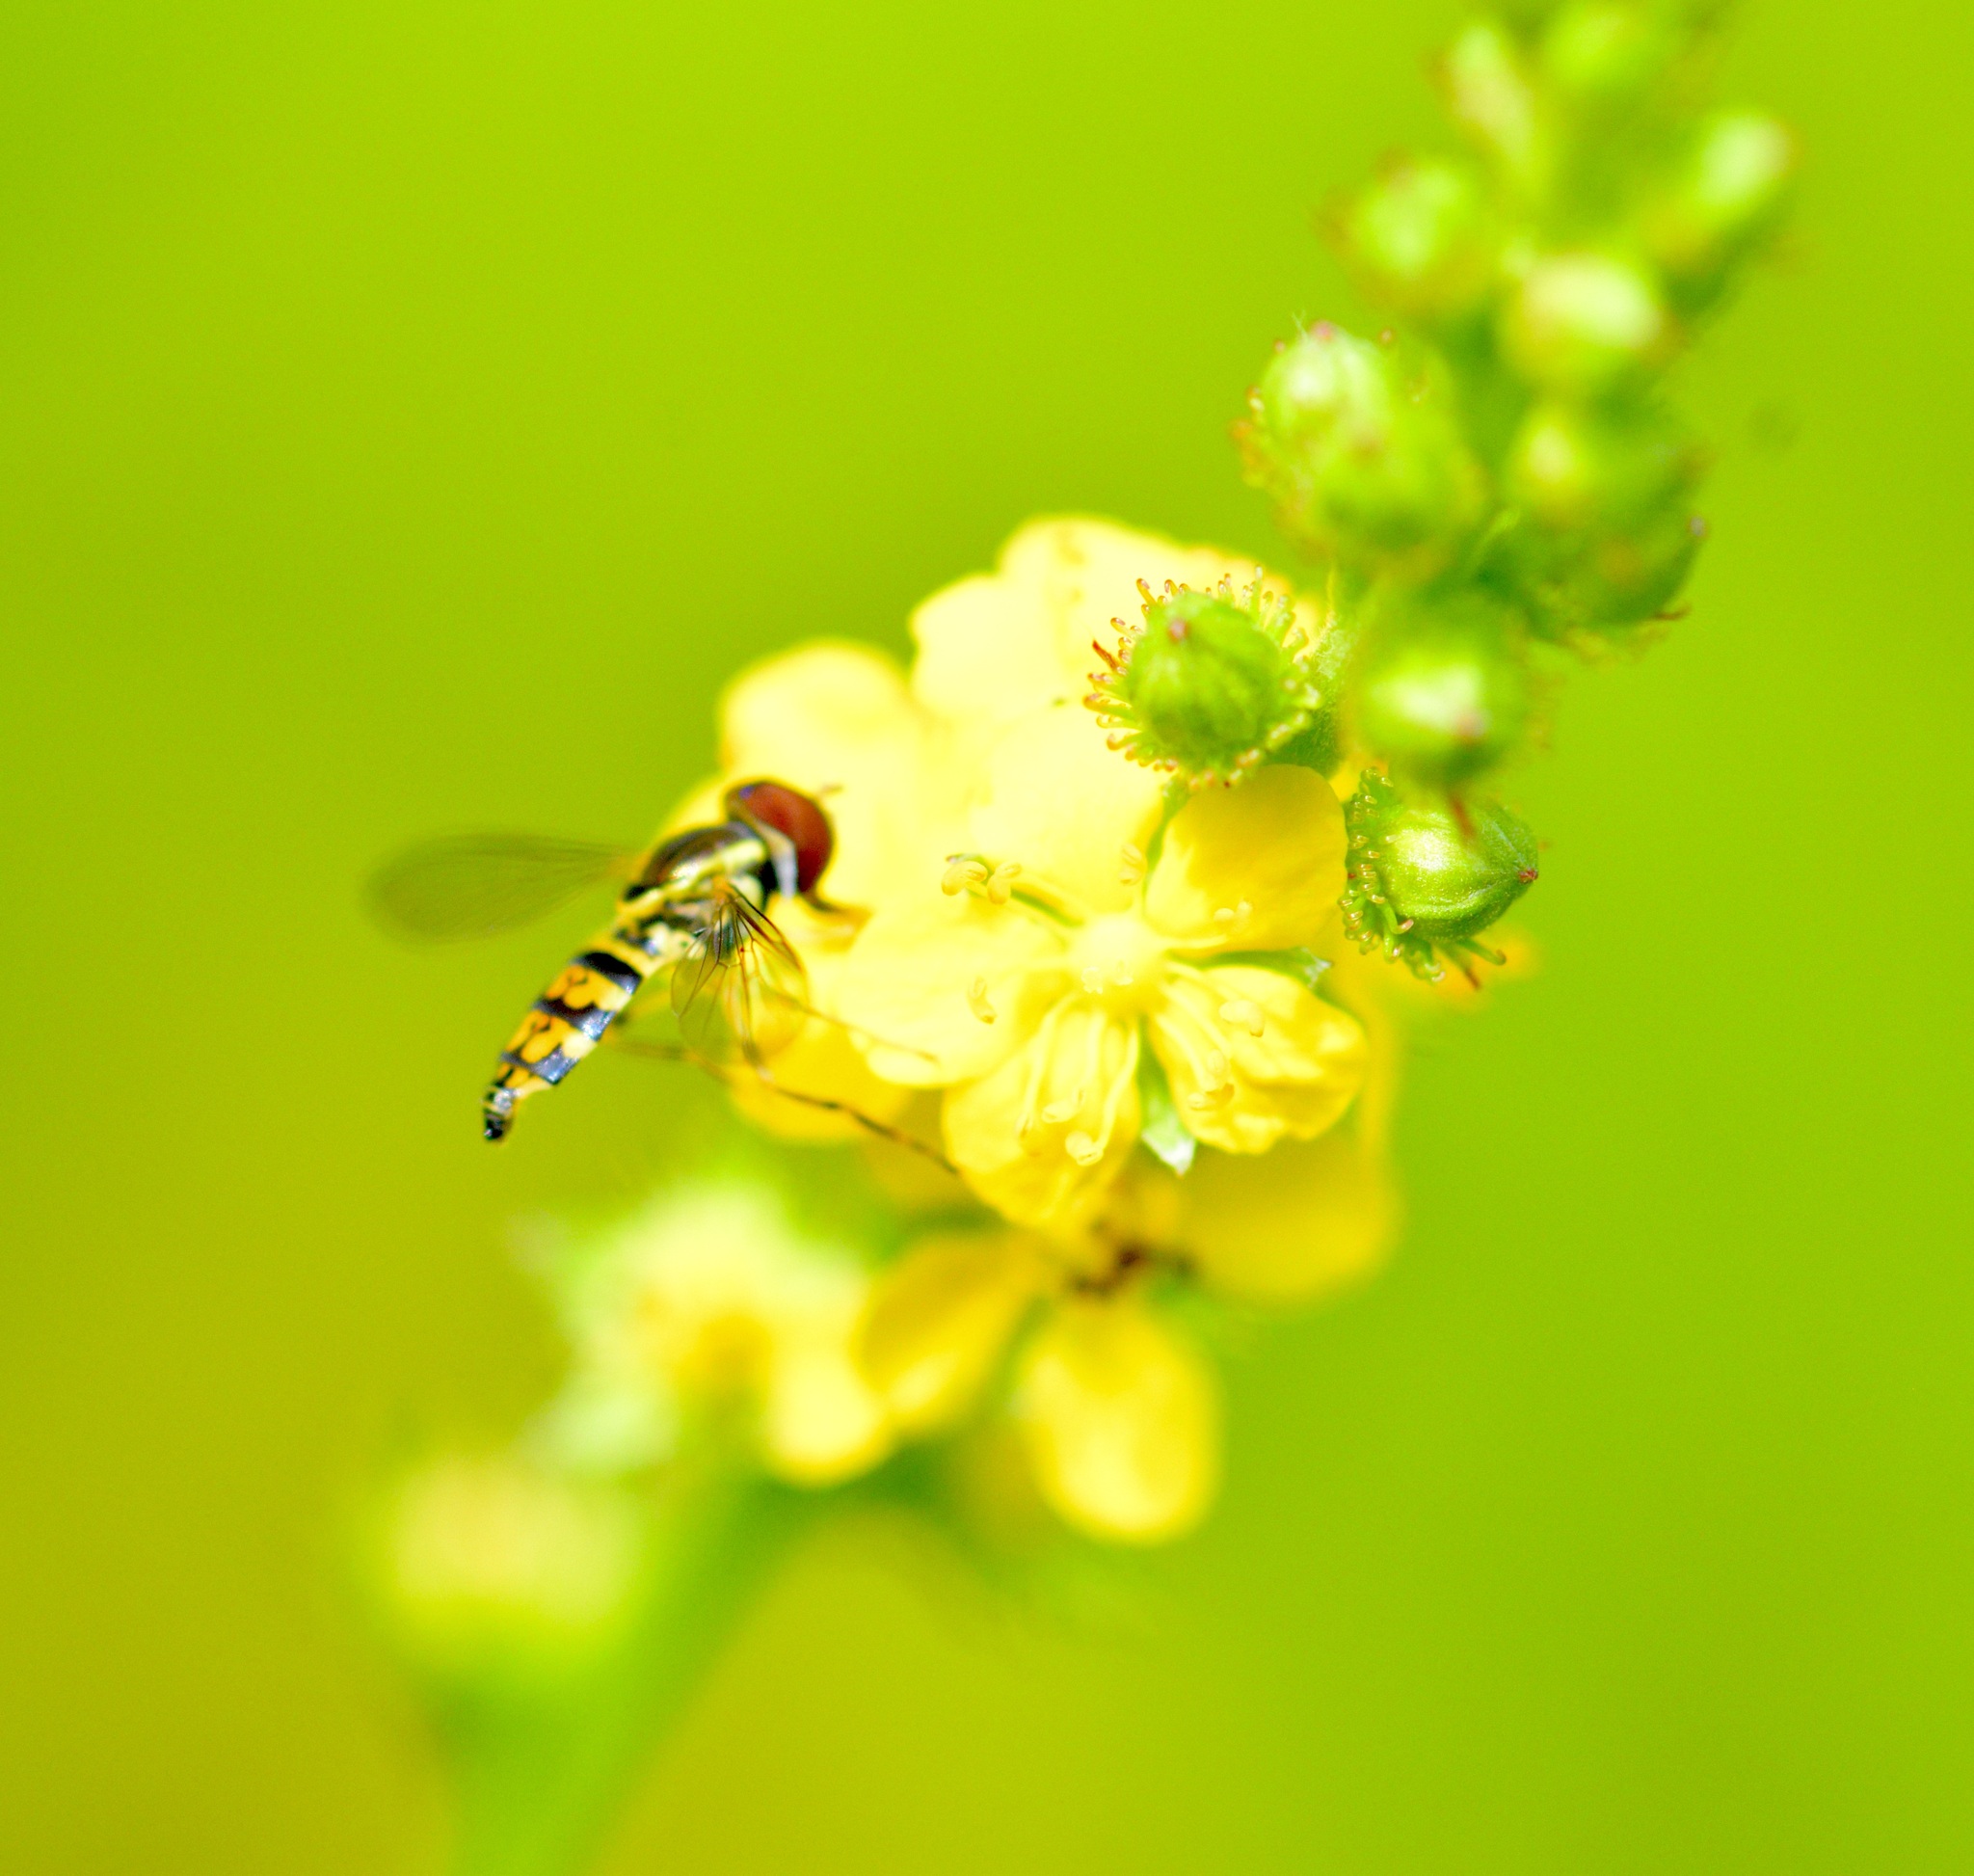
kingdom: Animalia
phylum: Arthropoda
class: Insecta
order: Diptera
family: Syrphidae
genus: Toxomerus
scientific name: Toxomerus geminatus
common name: Eastern calligrapher
